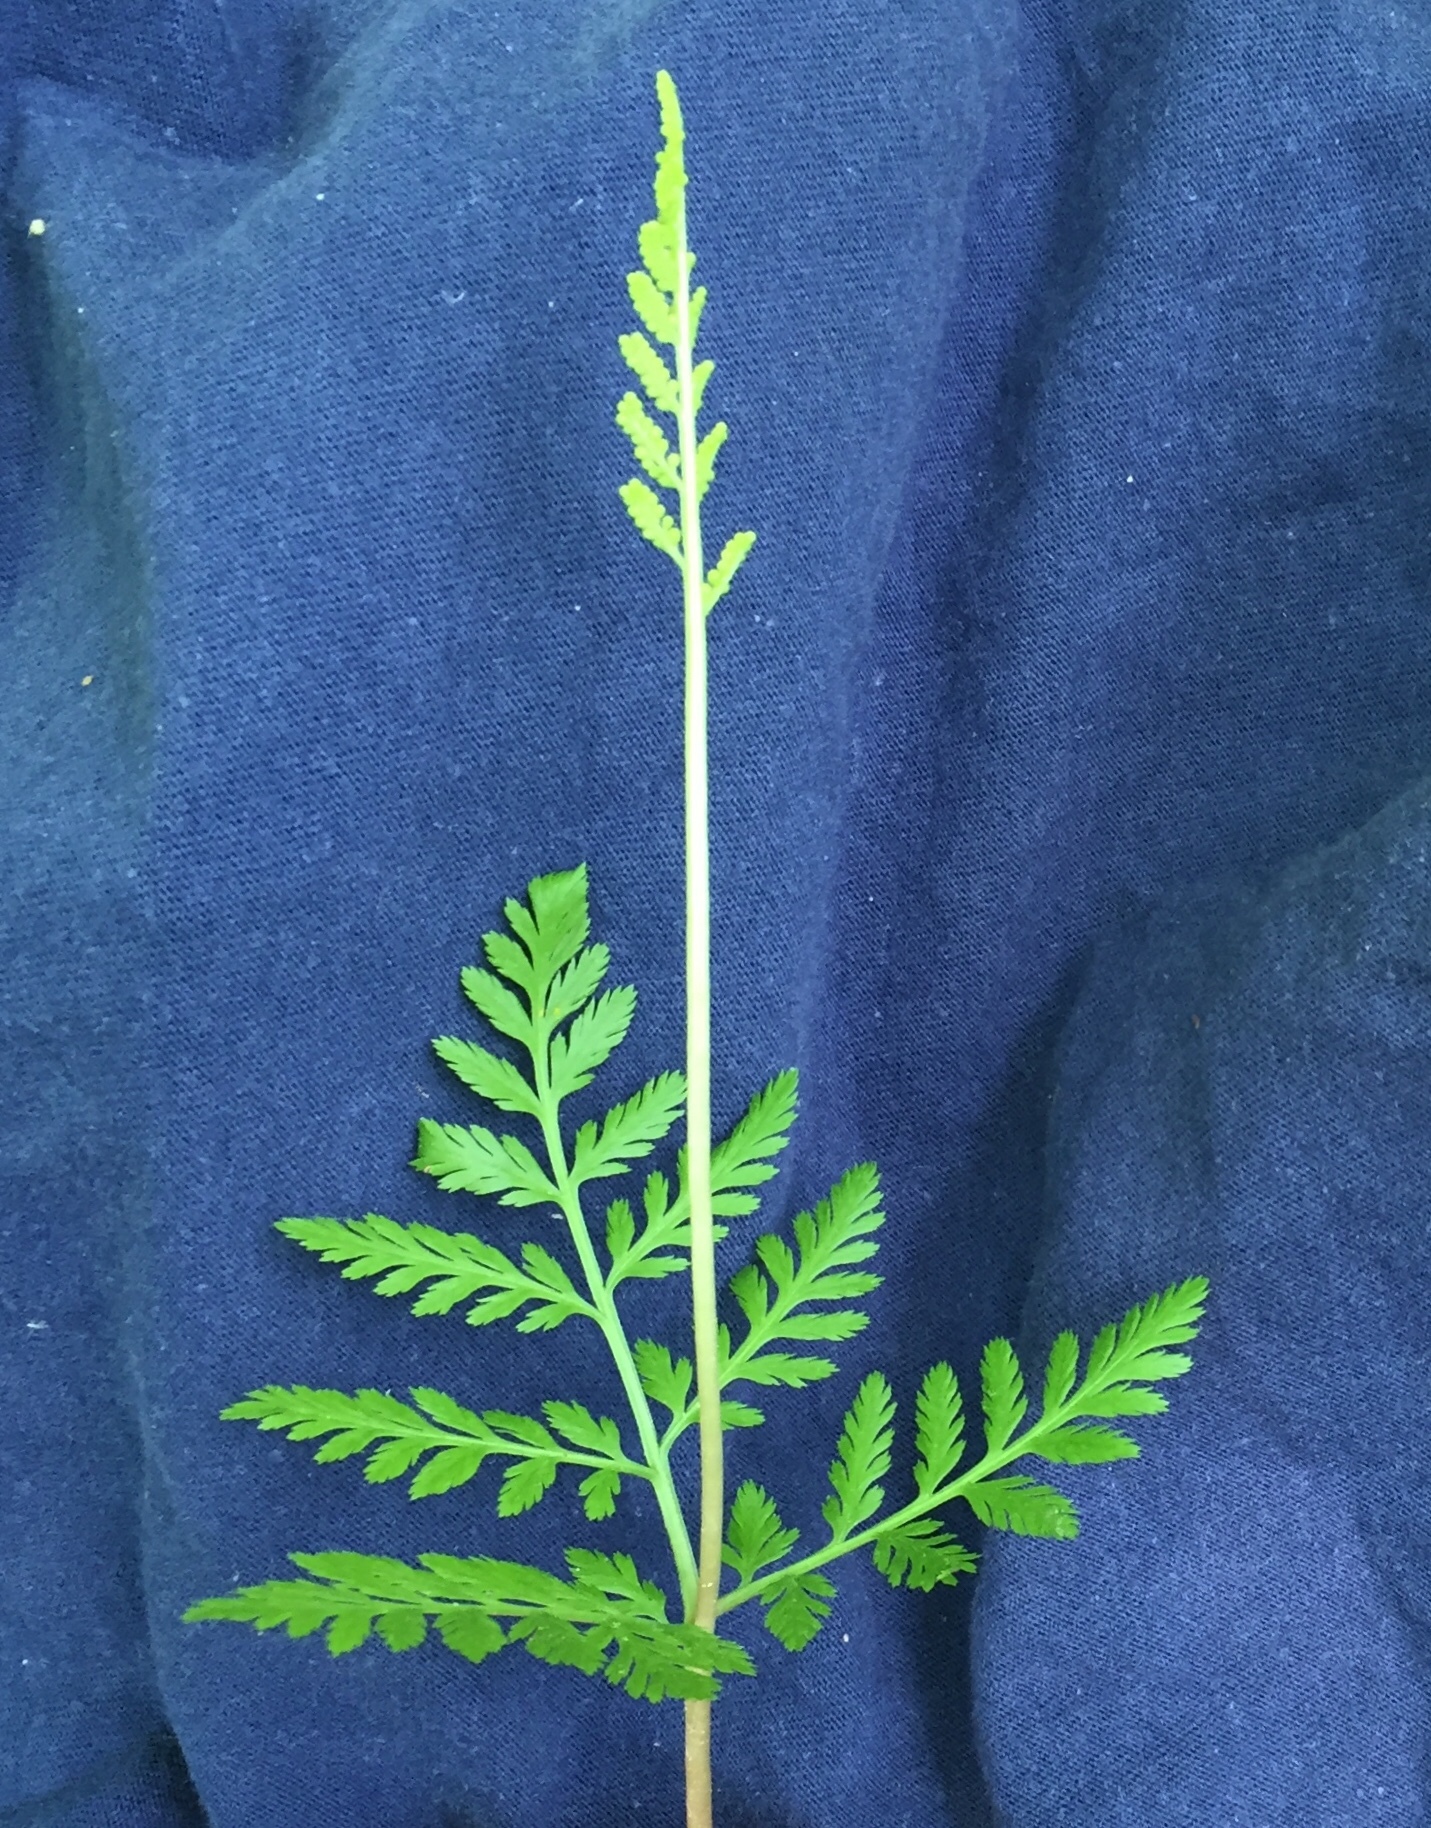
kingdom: Plantae
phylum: Tracheophyta
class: Polypodiopsida
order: Ophioglossales
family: Ophioglossaceae
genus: Botrypus
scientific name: Botrypus virginianus
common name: Common grapefern
